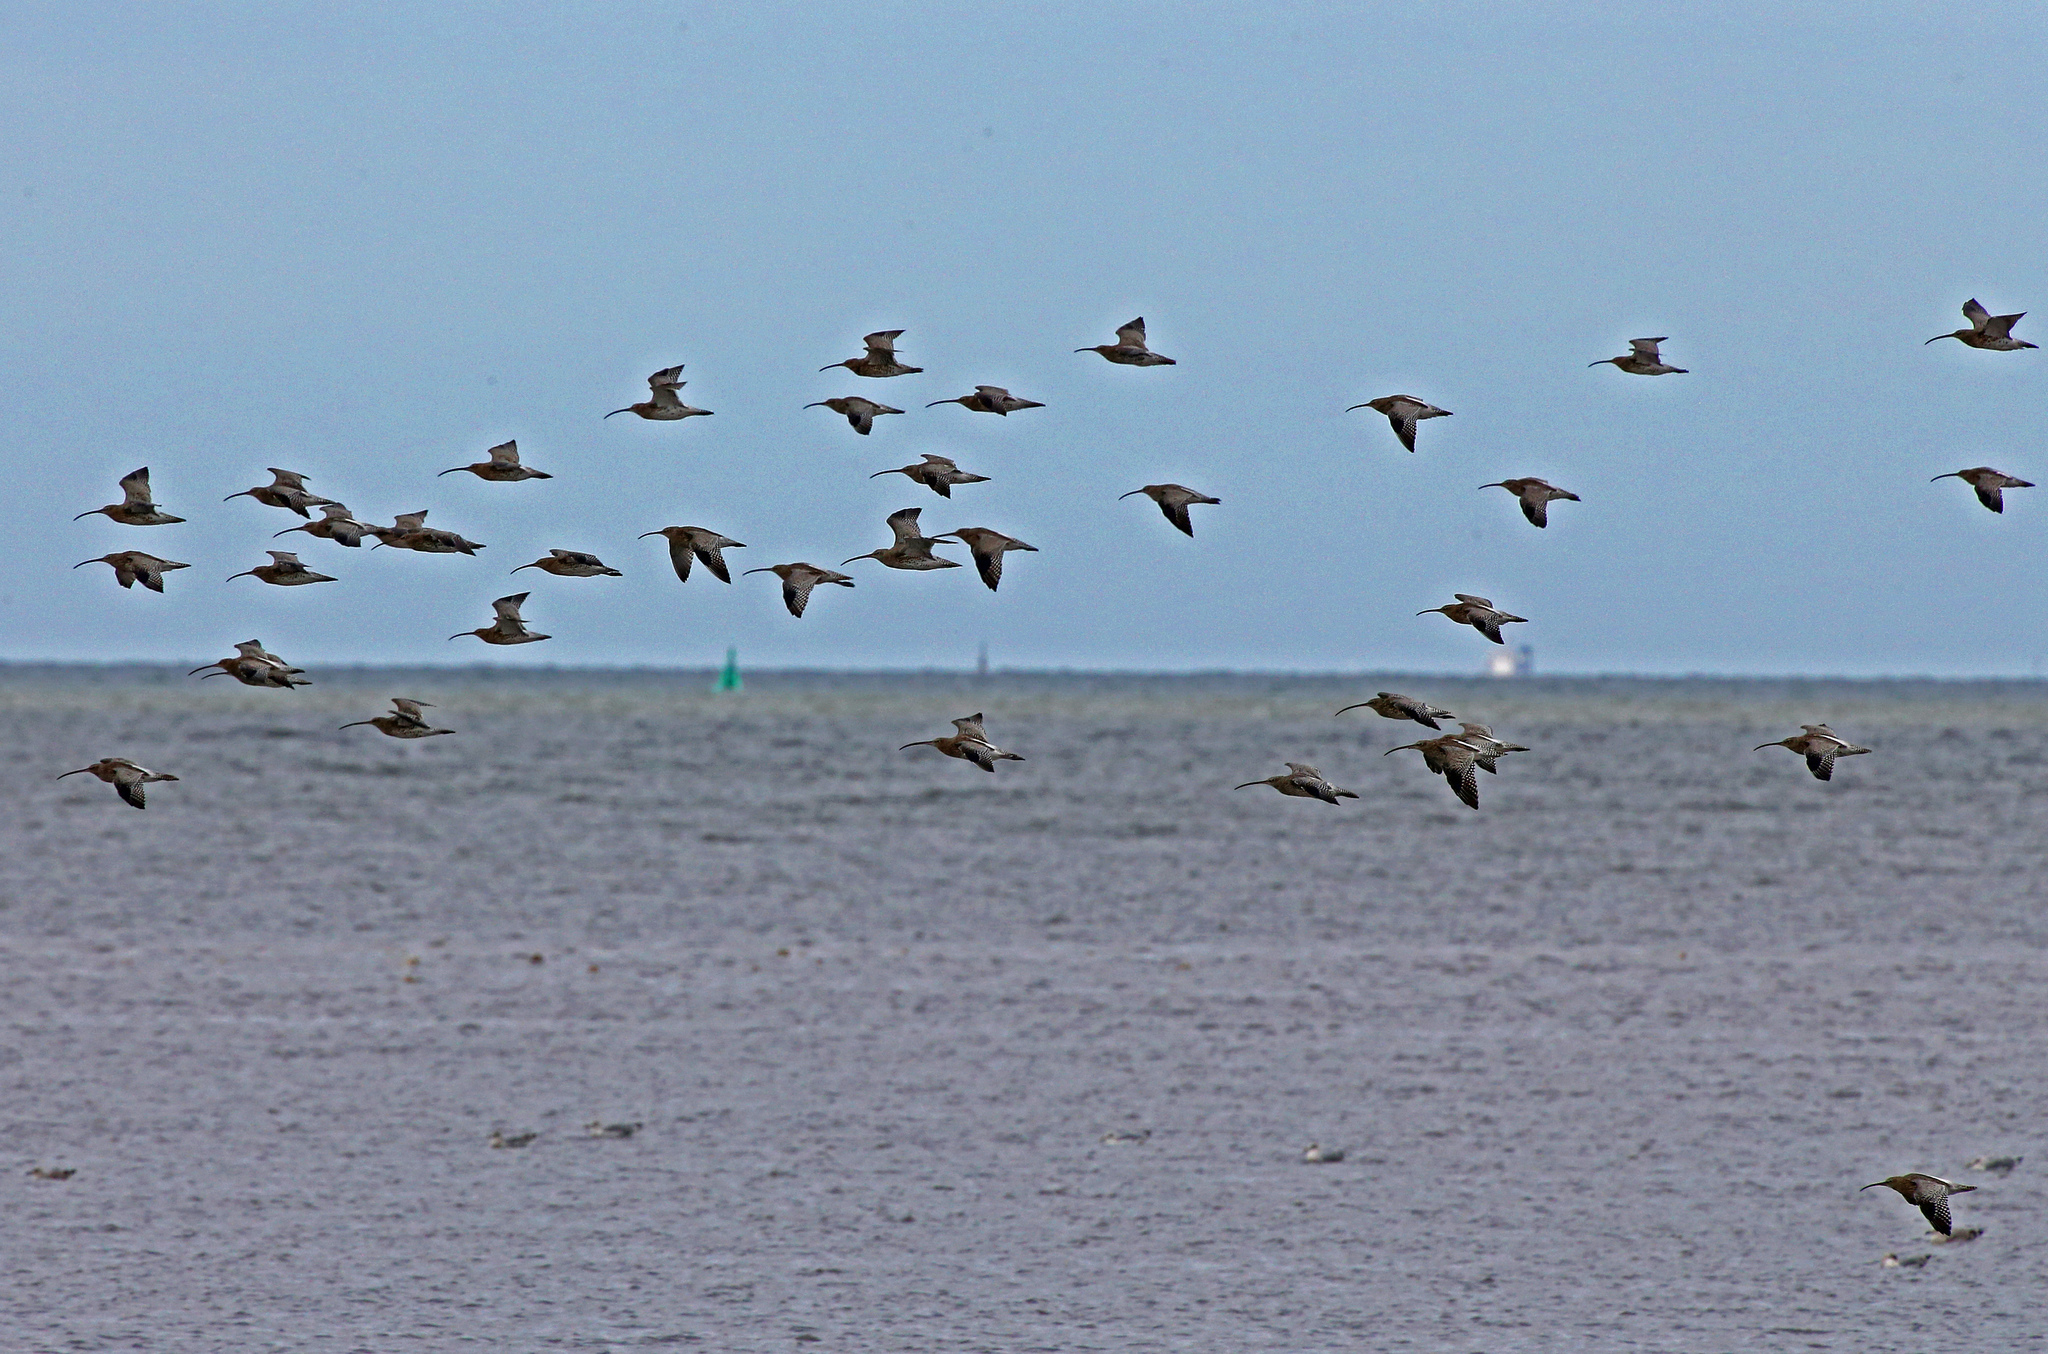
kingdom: Animalia
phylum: Chordata
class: Aves
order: Charadriiformes
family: Scolopacidae
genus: Numenius
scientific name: Numenius arquata
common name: Eurasian curlew
